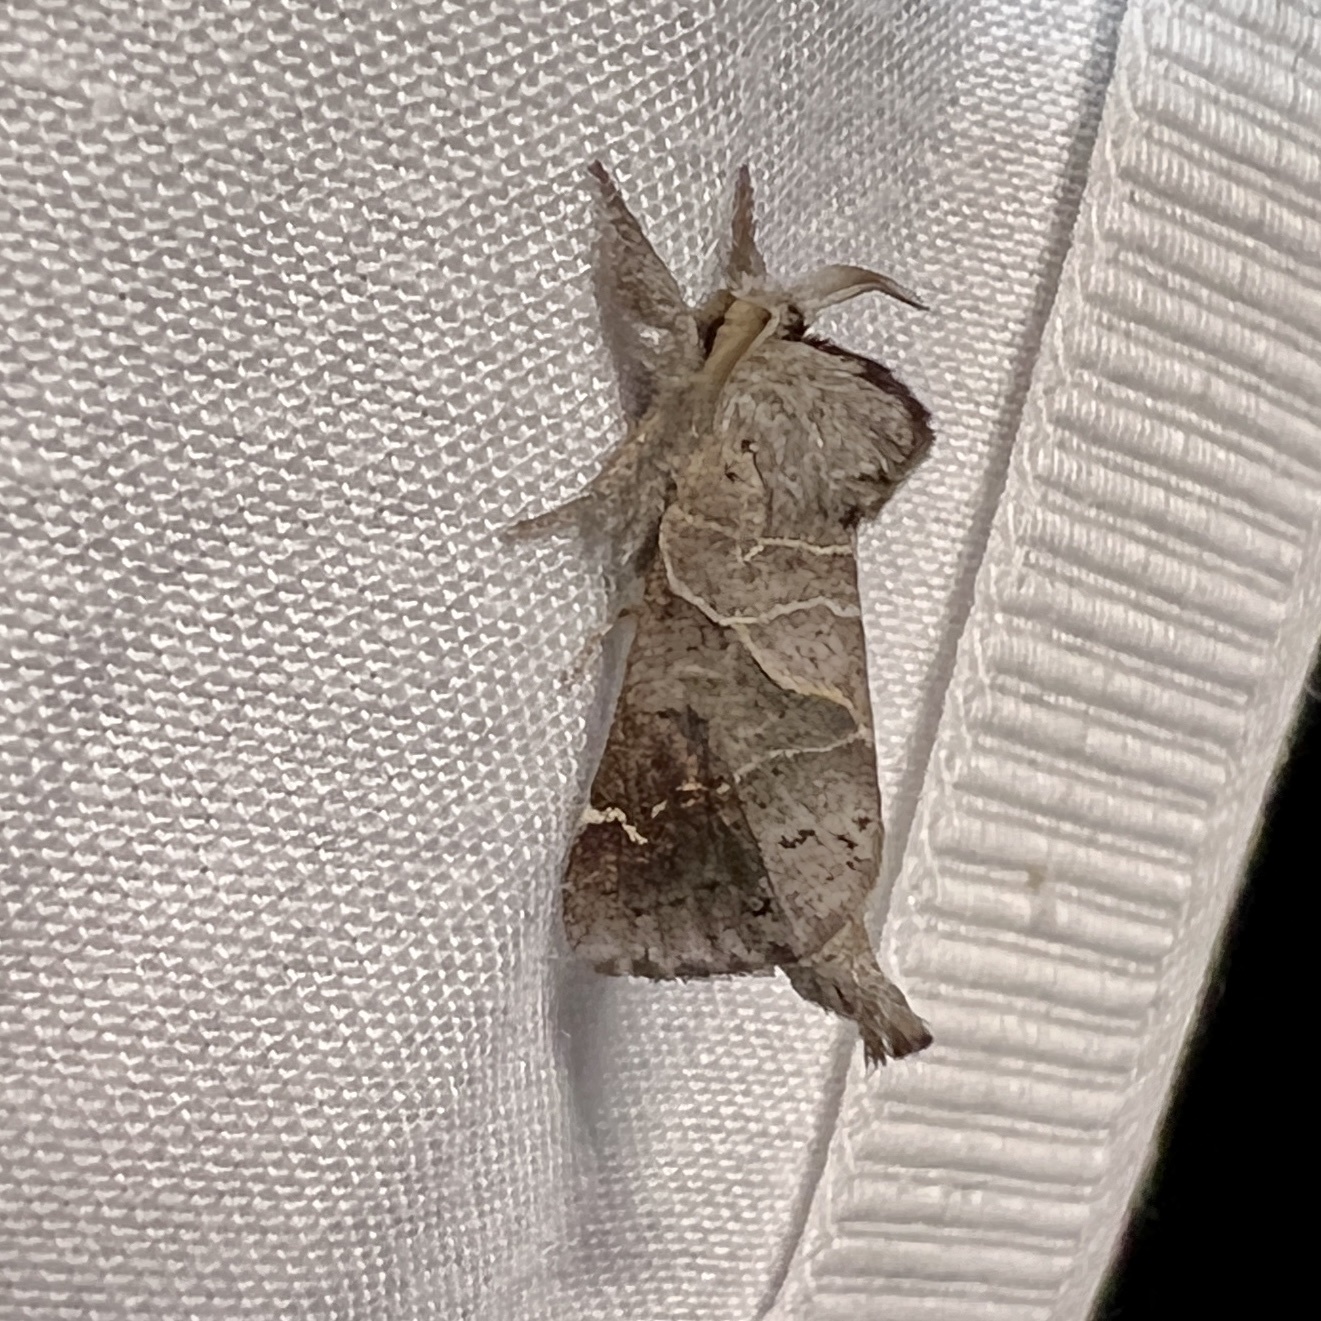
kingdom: Animalia
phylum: Arthropoda
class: Insecta
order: Lepidoptera
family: Notodontidae
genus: Clostera
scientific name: Clostera apicalis
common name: Apical prominent
